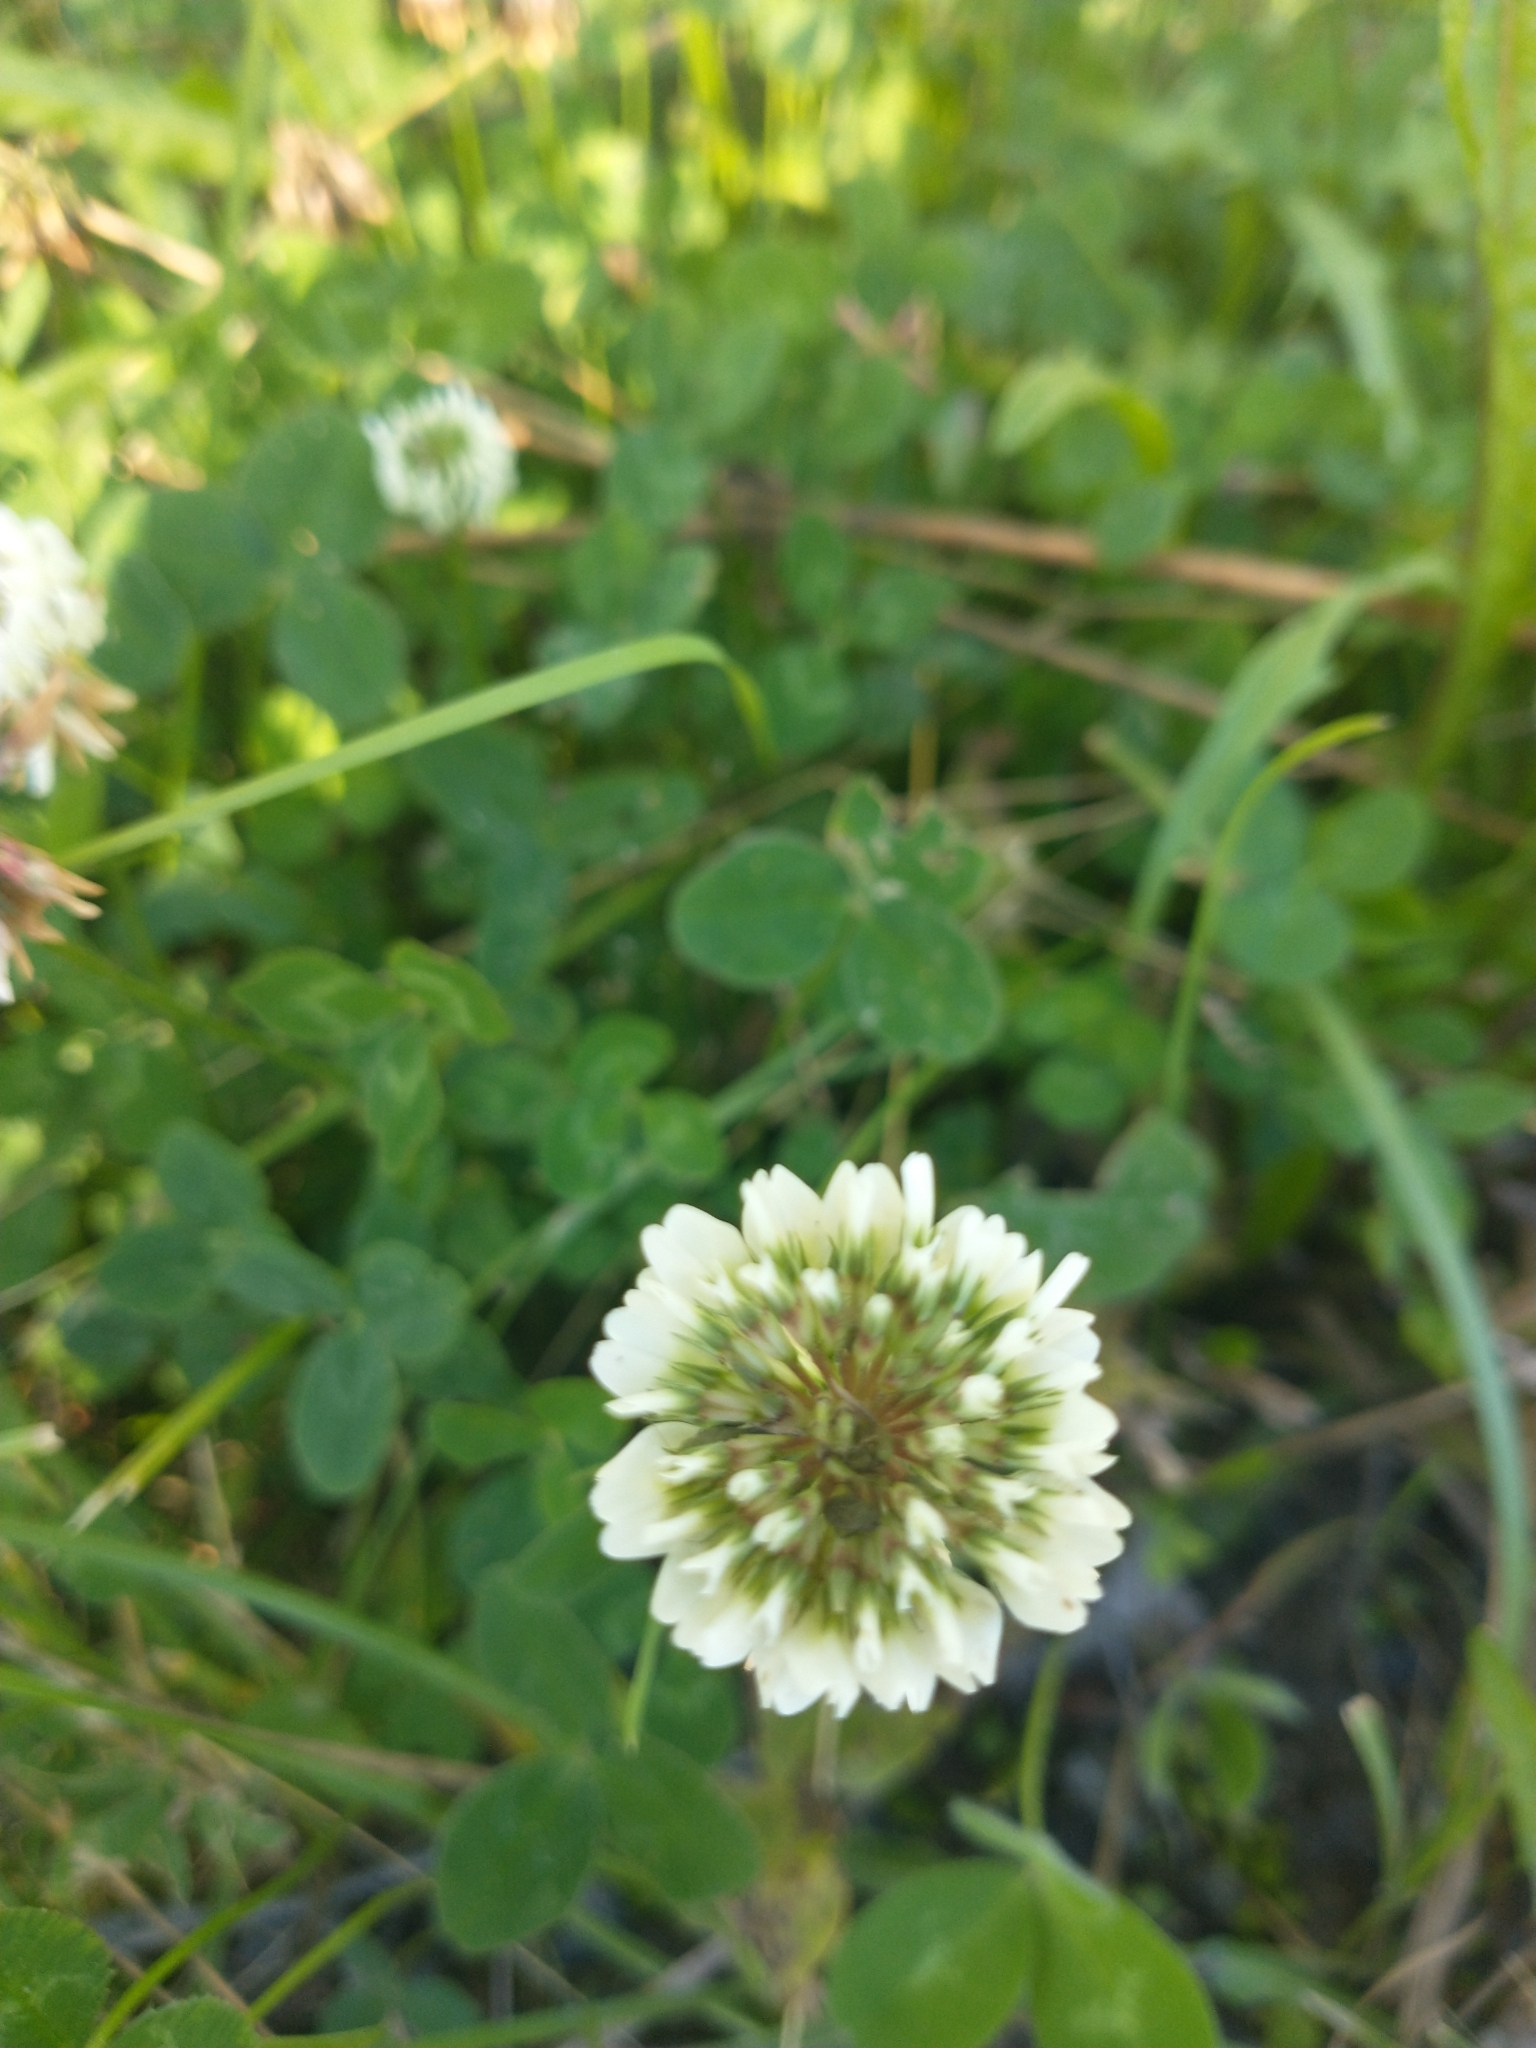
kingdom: Plantae
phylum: Tracheophyta
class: Magnoliopsida
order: Fabales
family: Fabaceae
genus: Trifolium
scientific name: Trifolium repens
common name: White clover
